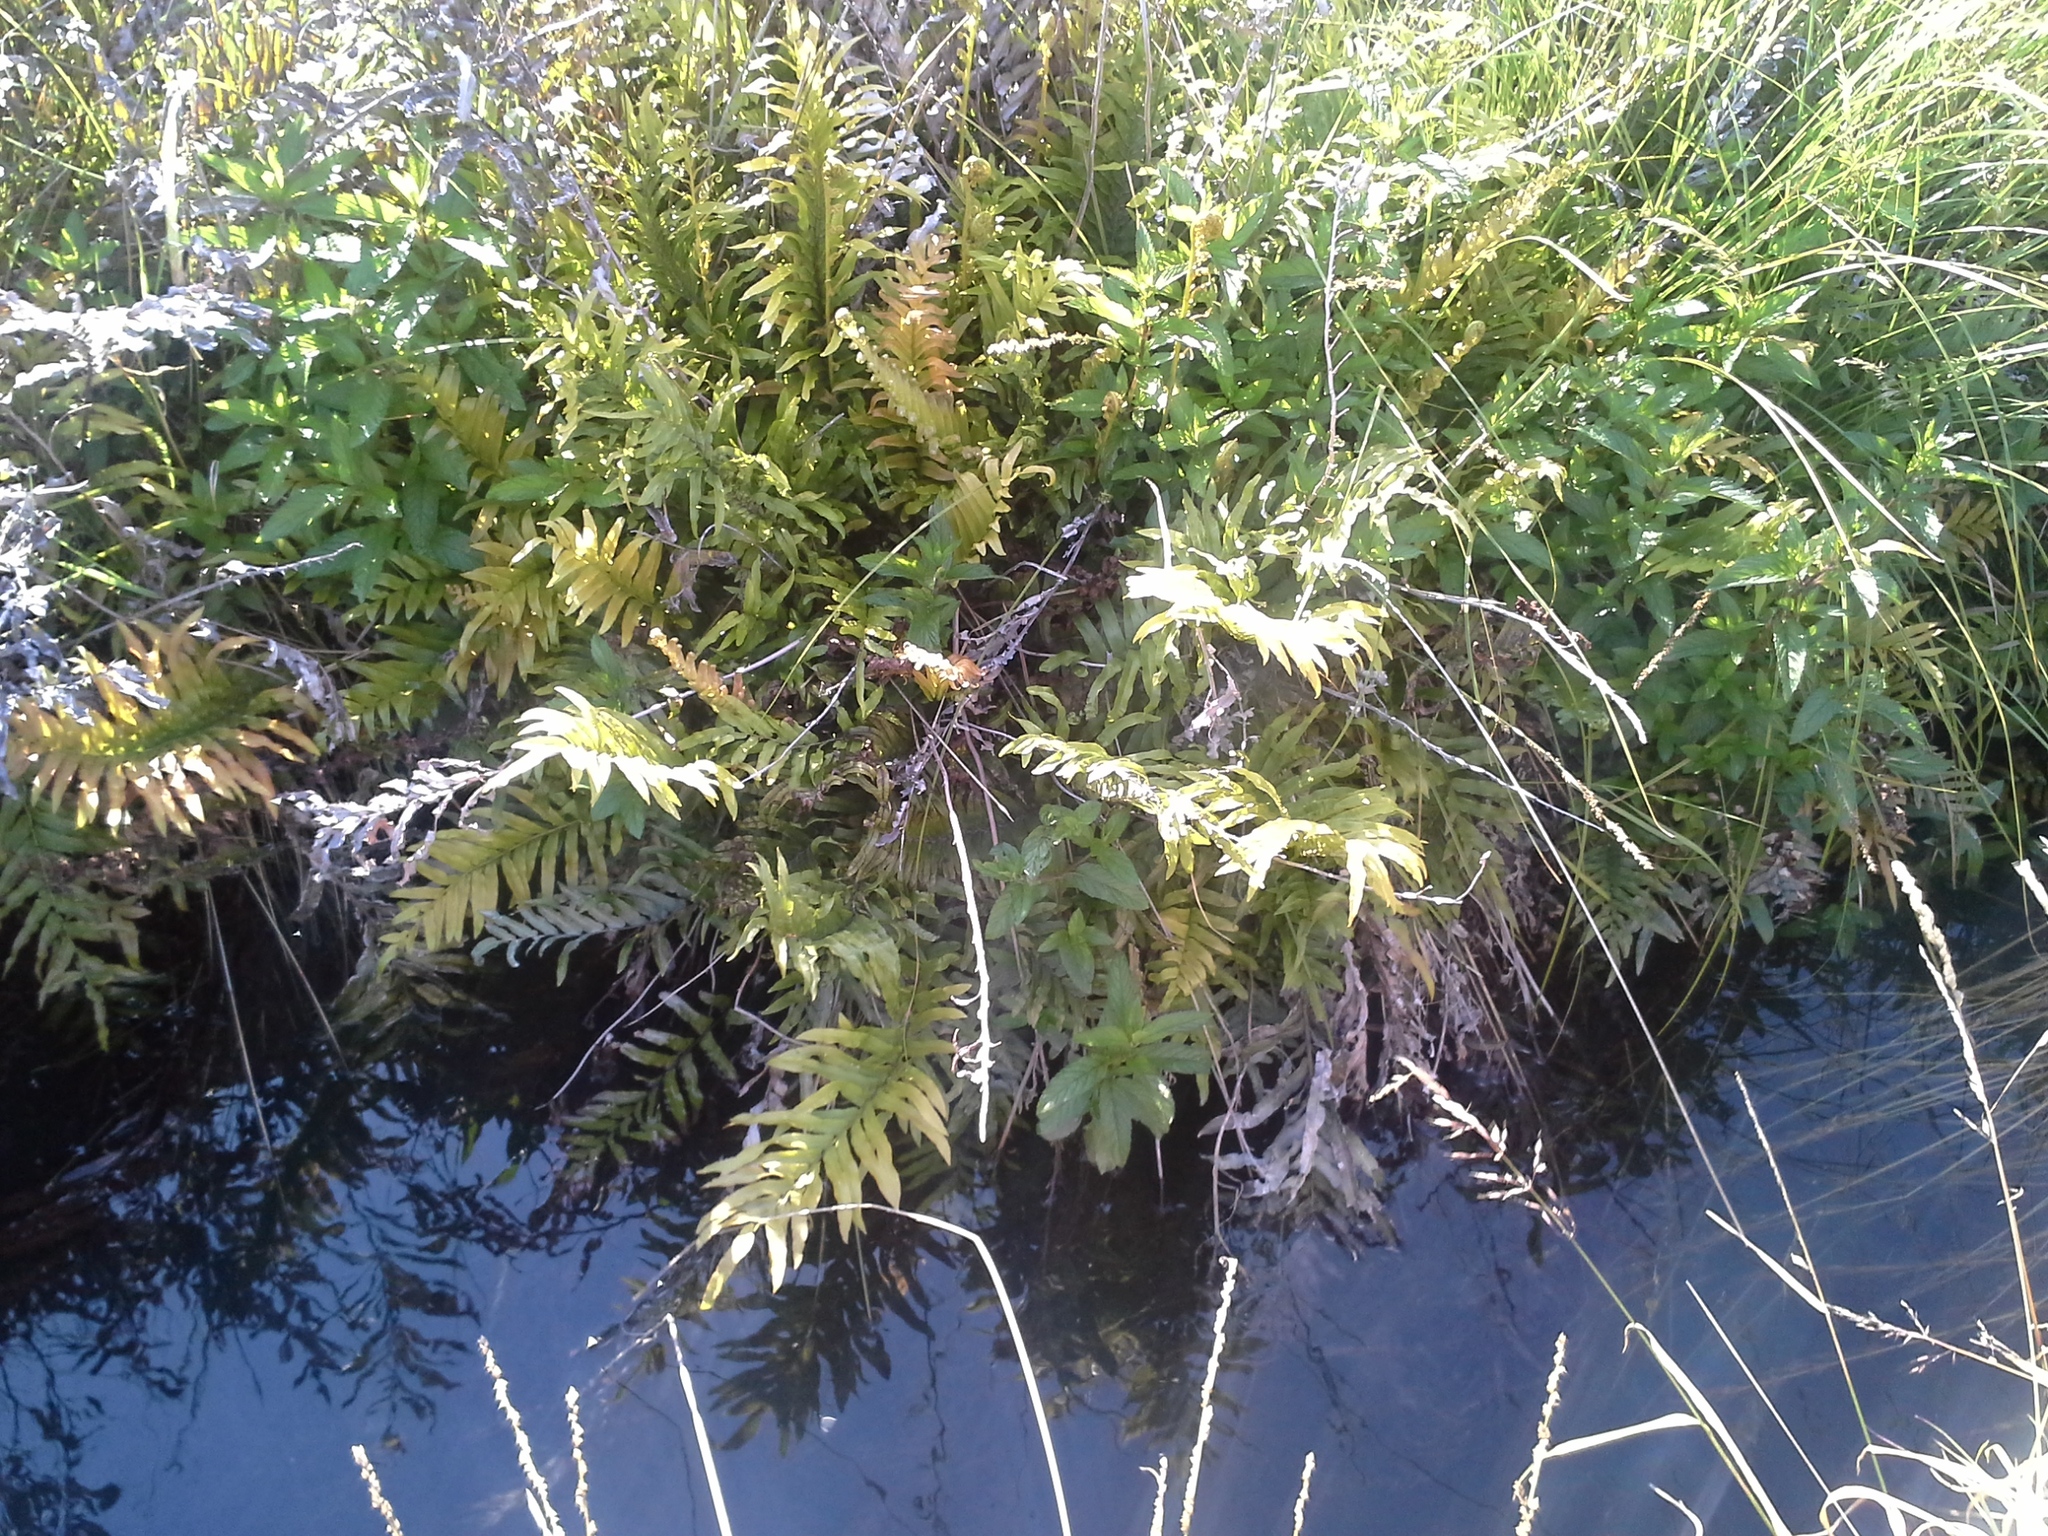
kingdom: Plantae
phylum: Tracheophyta
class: Polypodiopsida
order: Polypodiales
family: Blechnaceae
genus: Parablechnum
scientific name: Parablechnum minus
